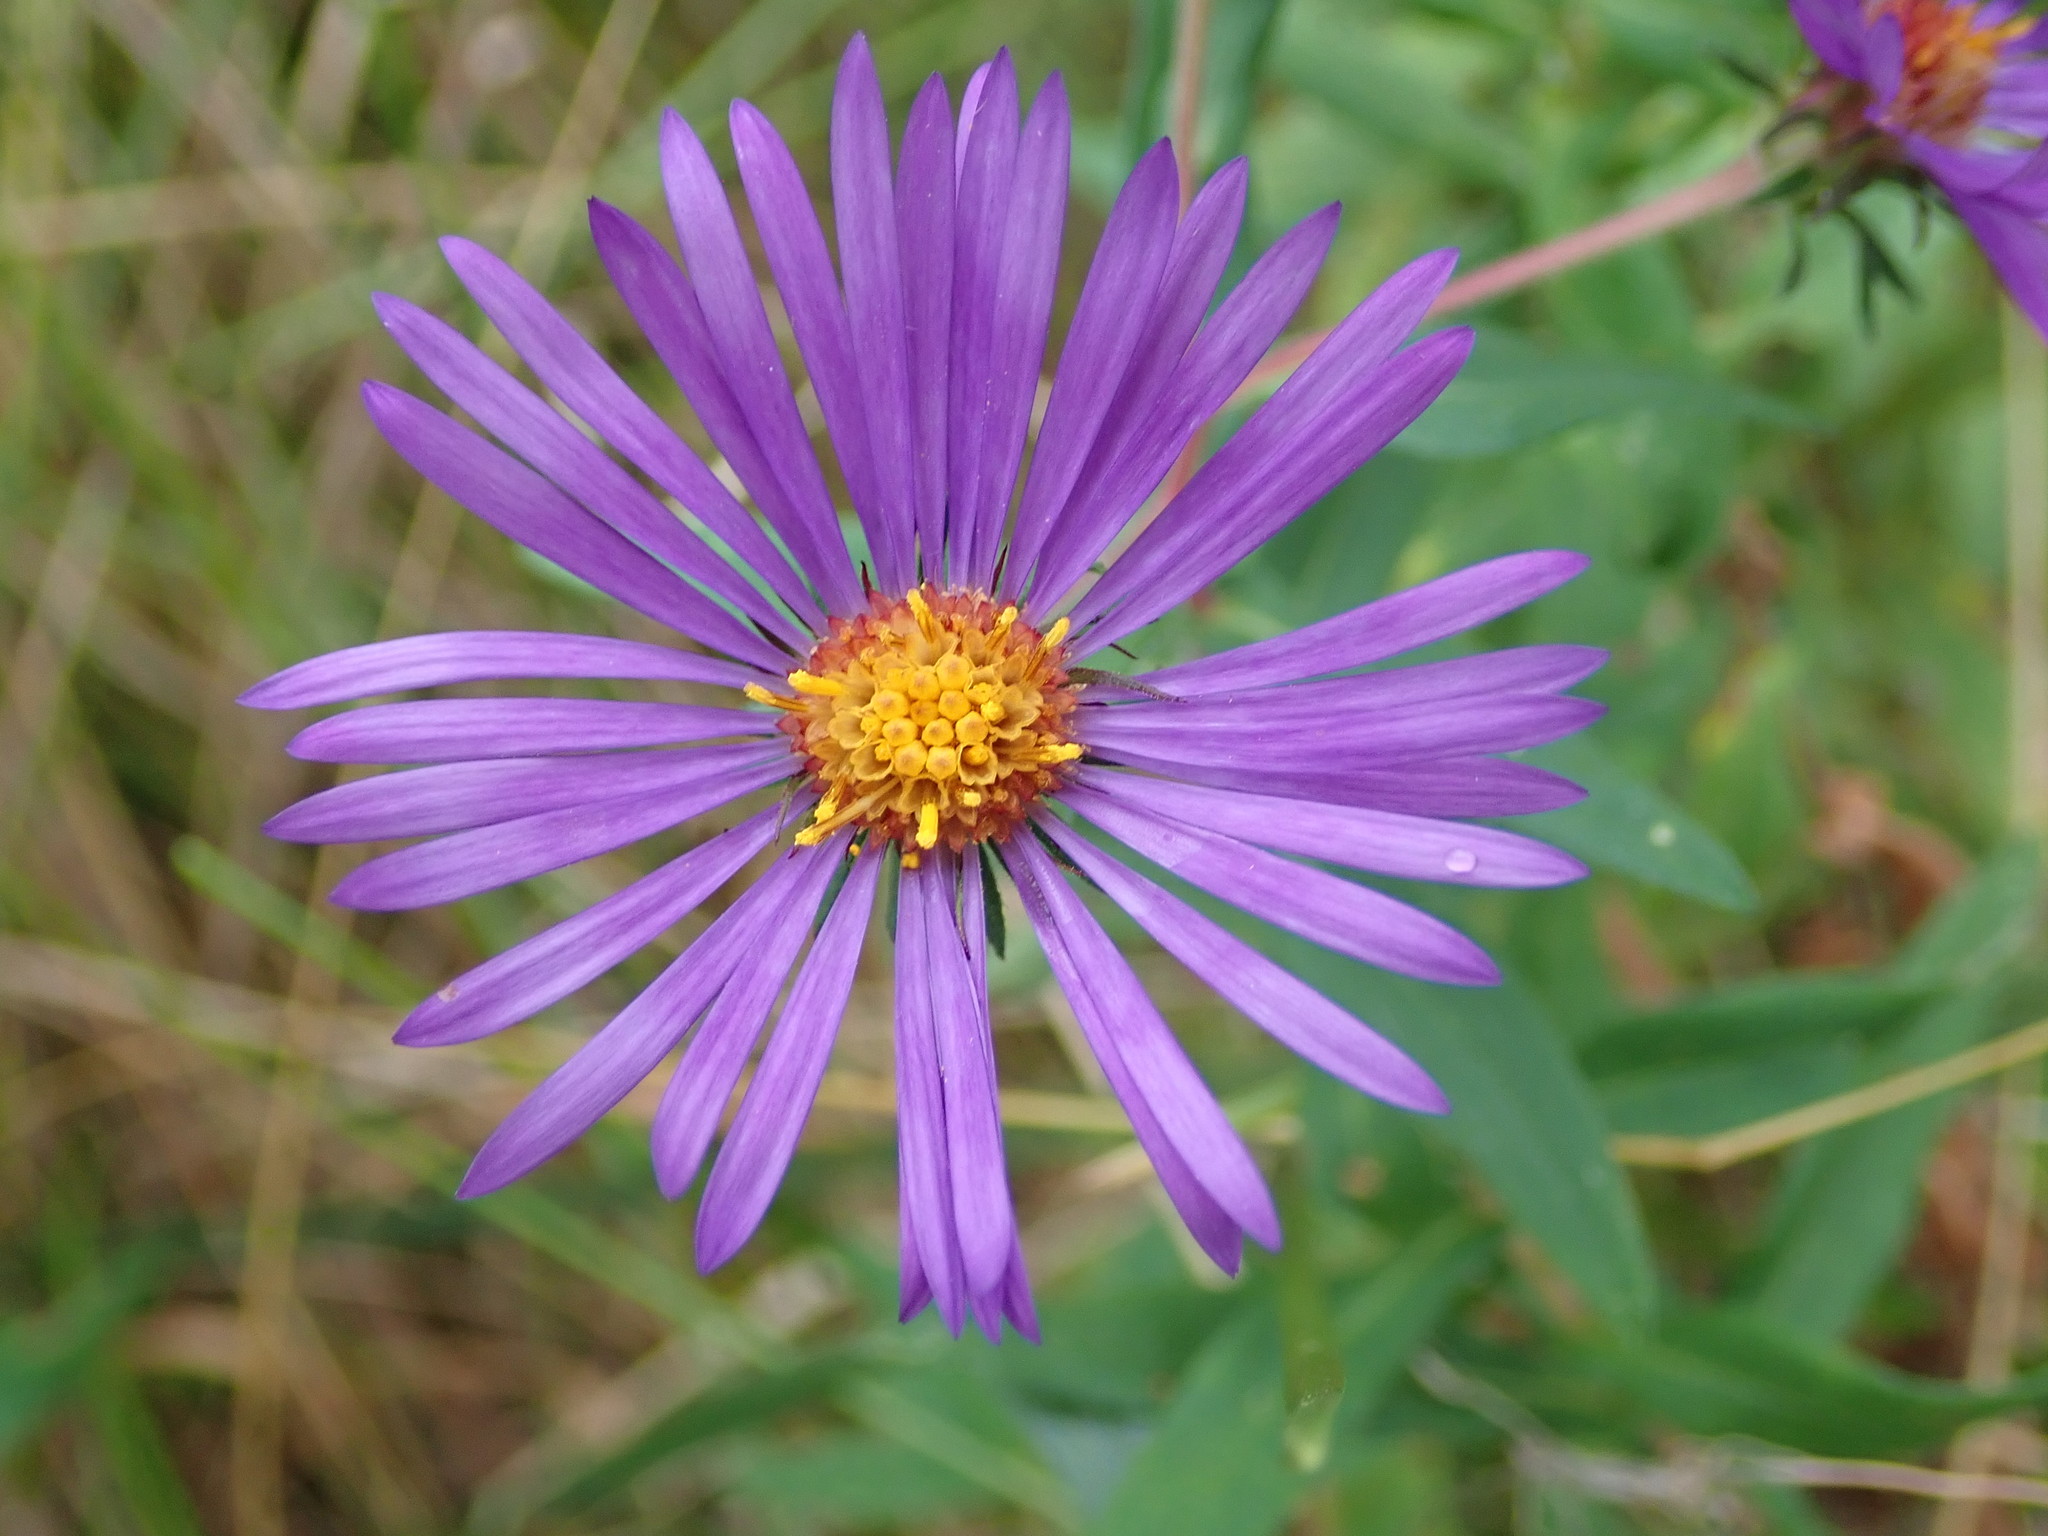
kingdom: Plantae
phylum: Tracheophyta
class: Magnoliopsida
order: Asterales
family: Asteraceae
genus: Symphyotrichum
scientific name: Symphyotrichum novae-angliae
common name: Michaelmas daisy
